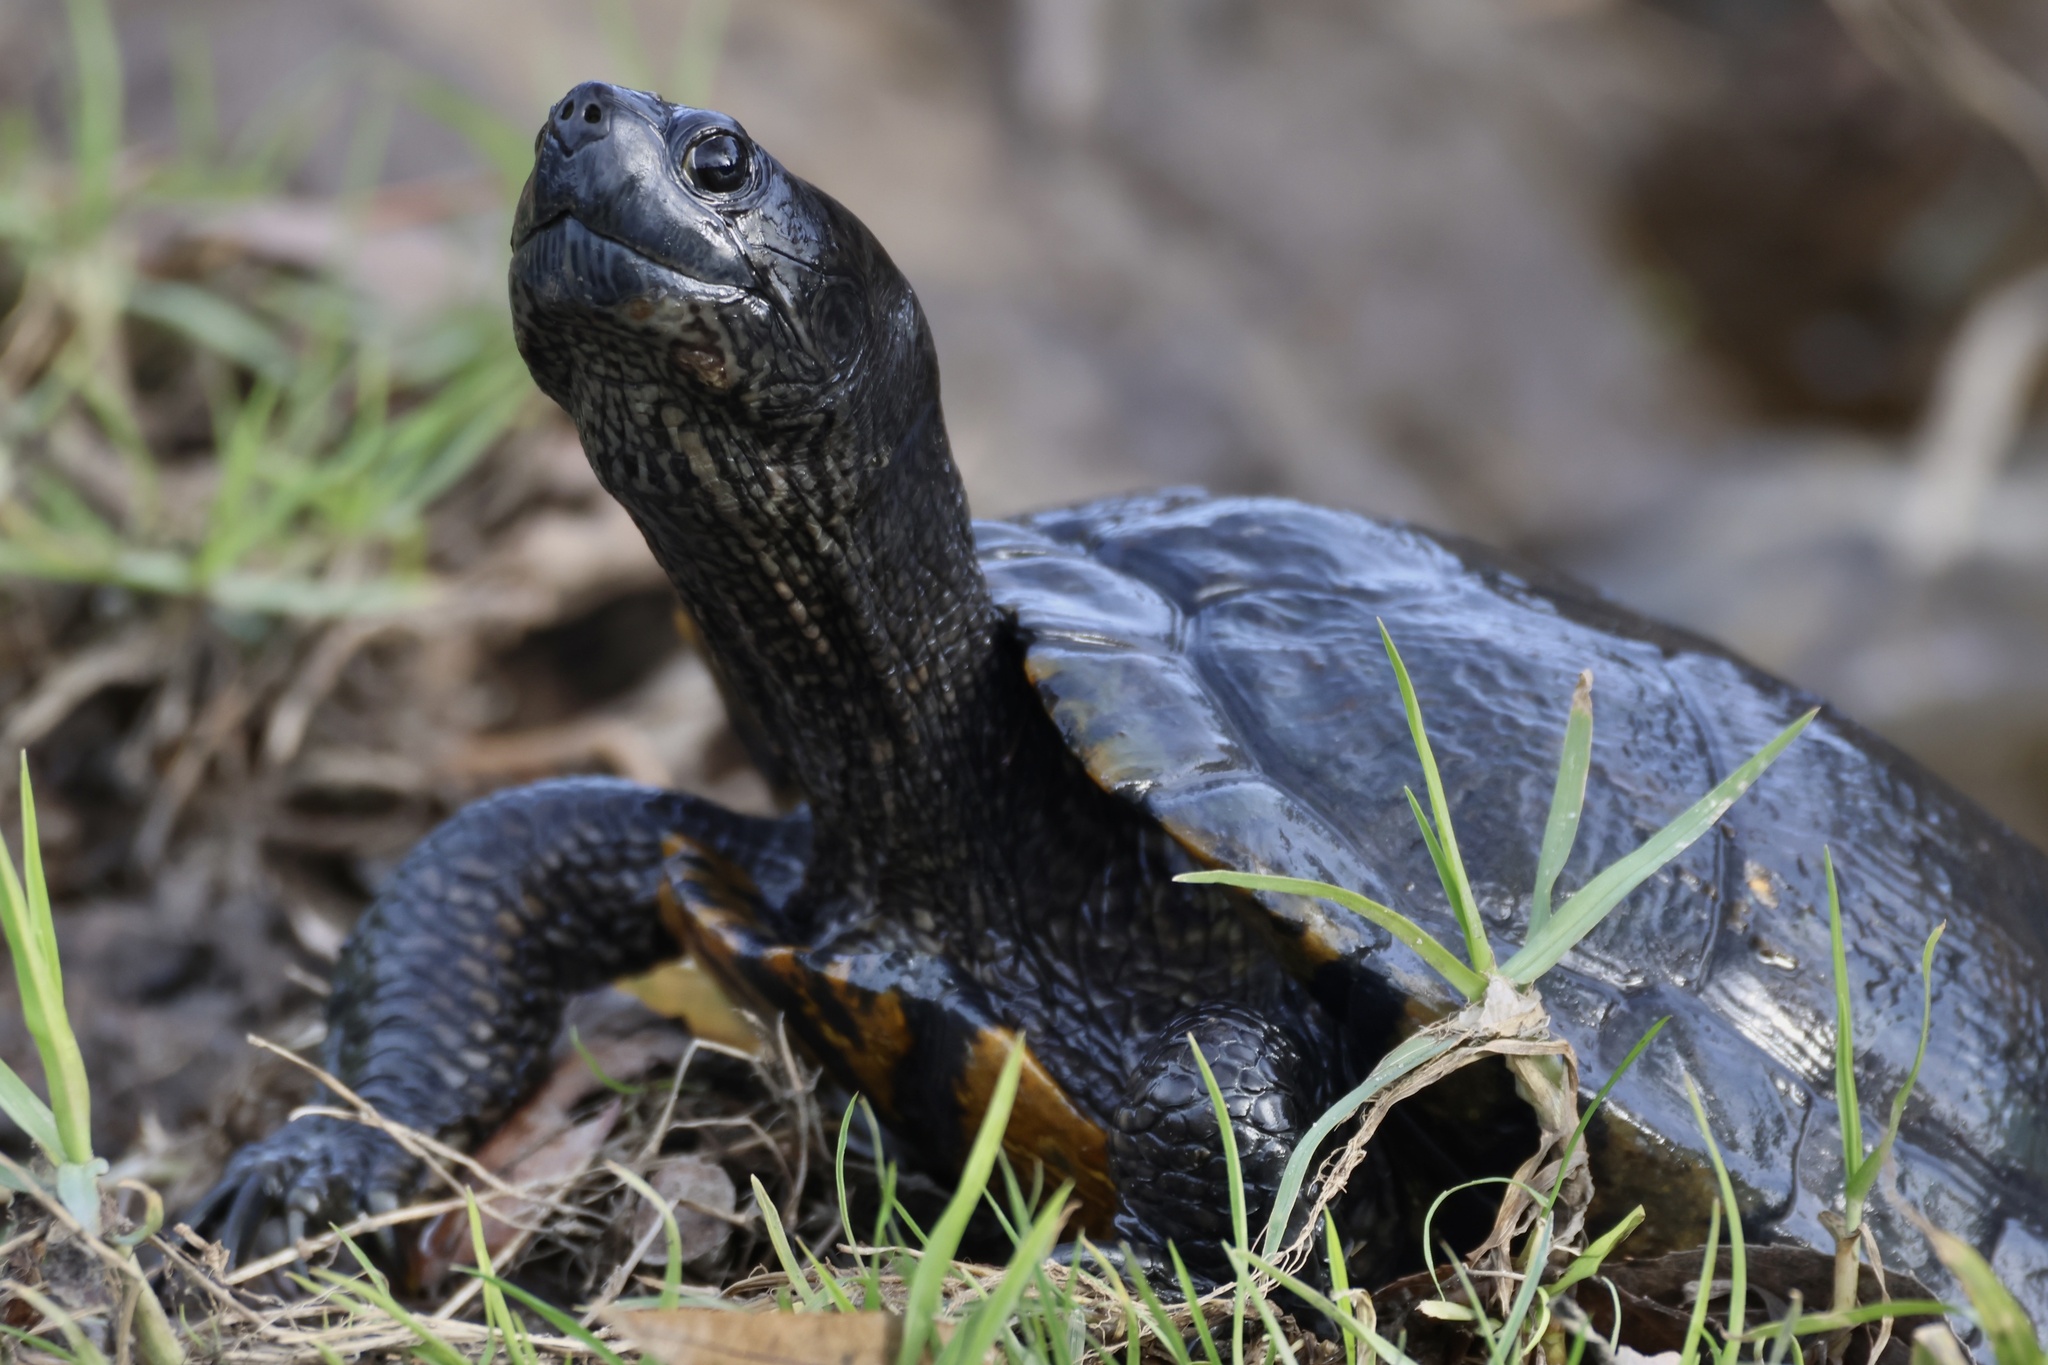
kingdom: Animalia
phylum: Chordata
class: Testudines
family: Emydidae
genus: Trachemys
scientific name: Trachemys scripta
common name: Slider
